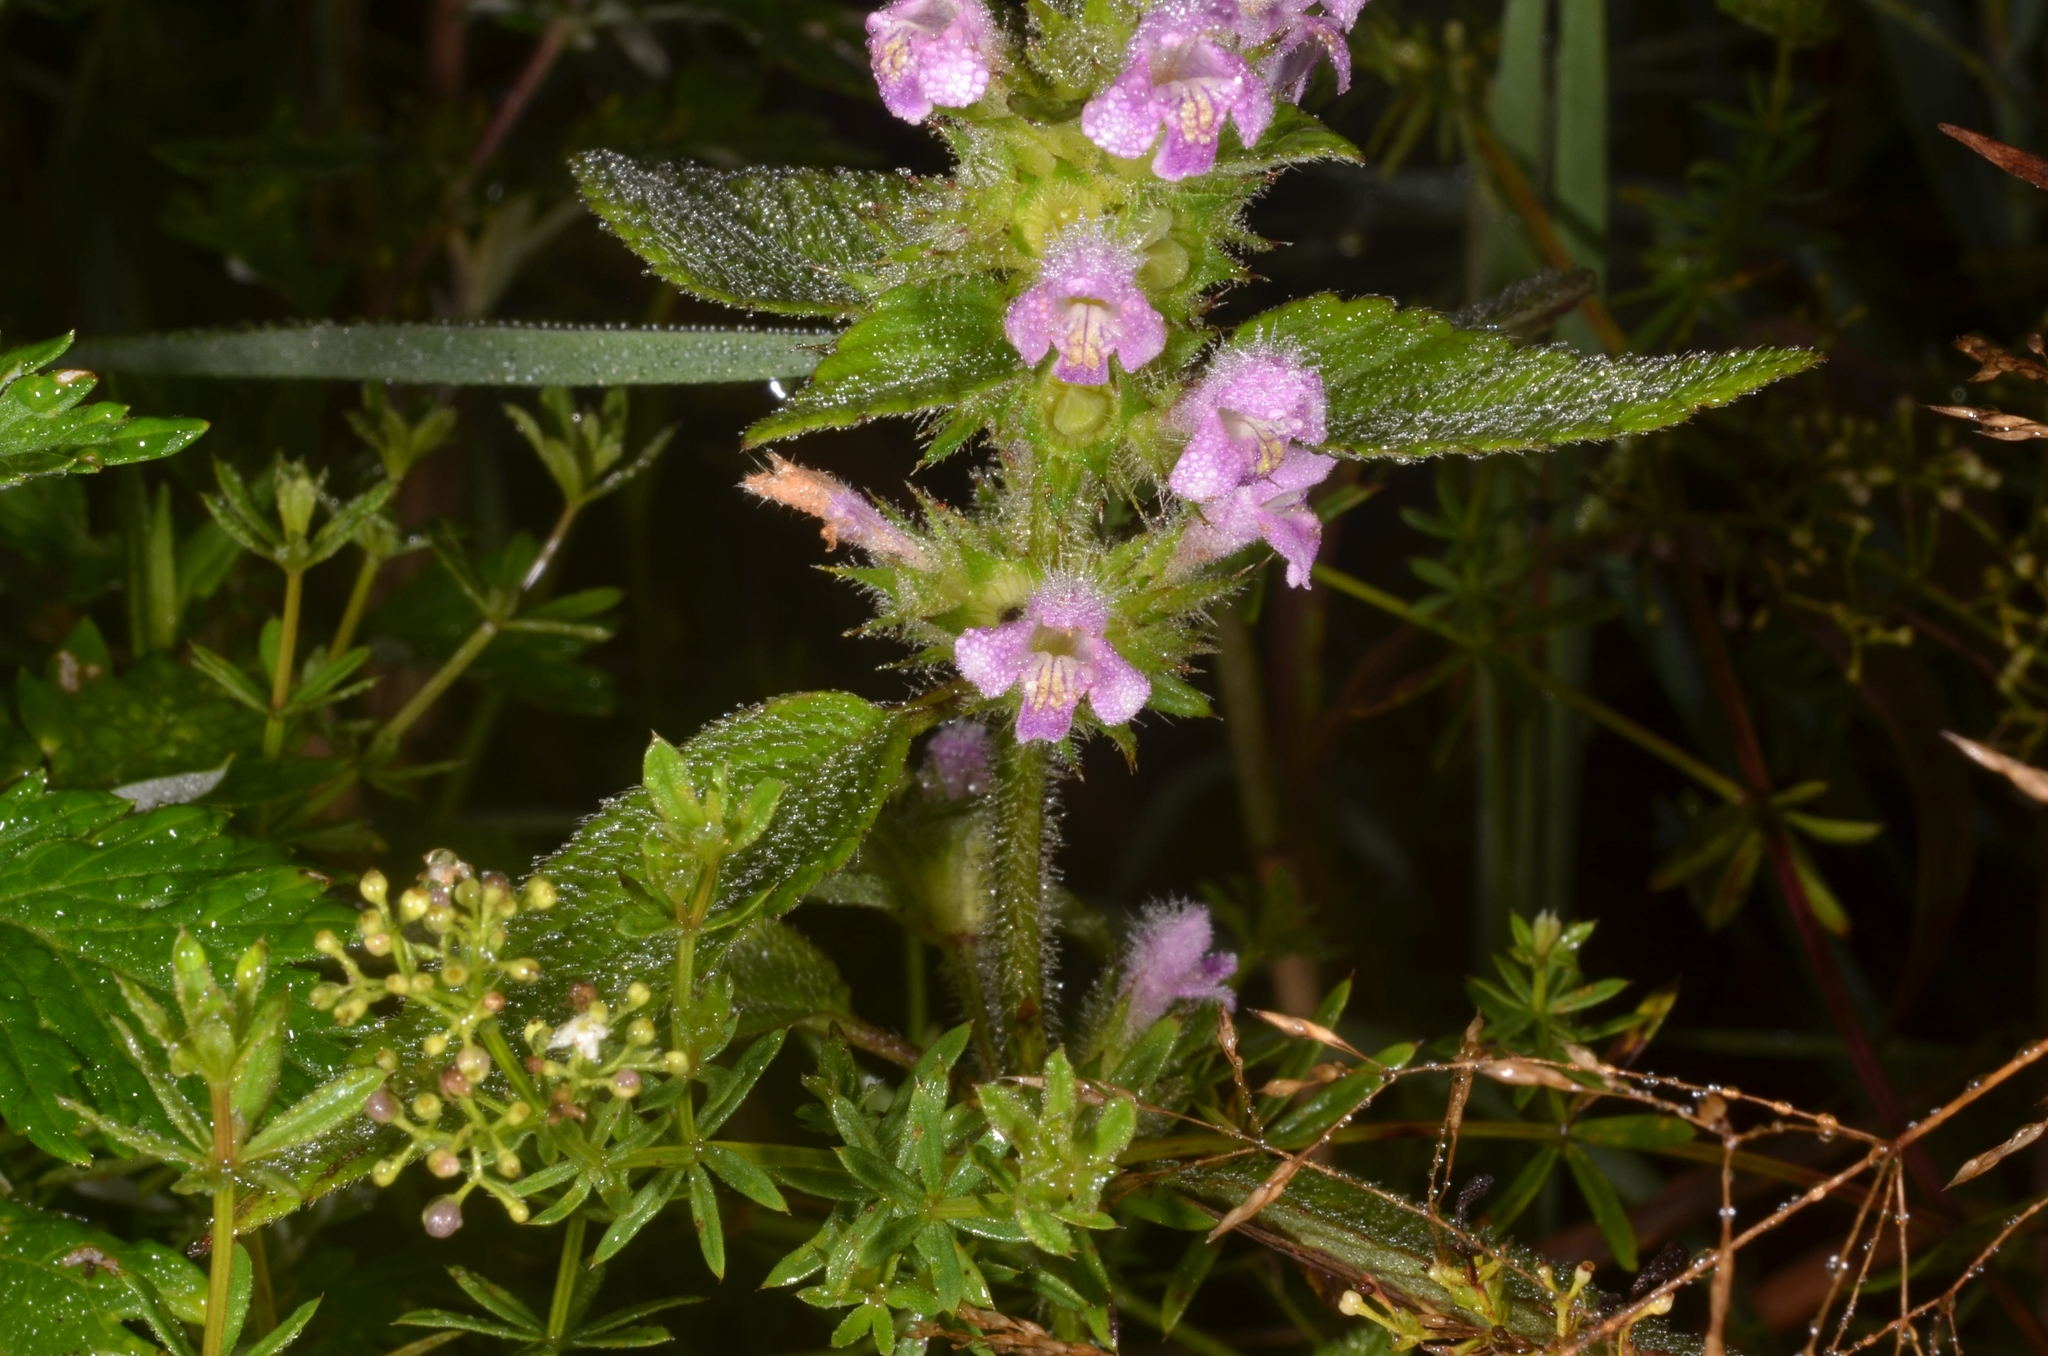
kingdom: Plantae
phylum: Tracheophyta
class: Magnoliopsida
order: Lamiales
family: Lamiaceae
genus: Galeopsis
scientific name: Galeopsis tetrahit
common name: Common hemp-nettle
